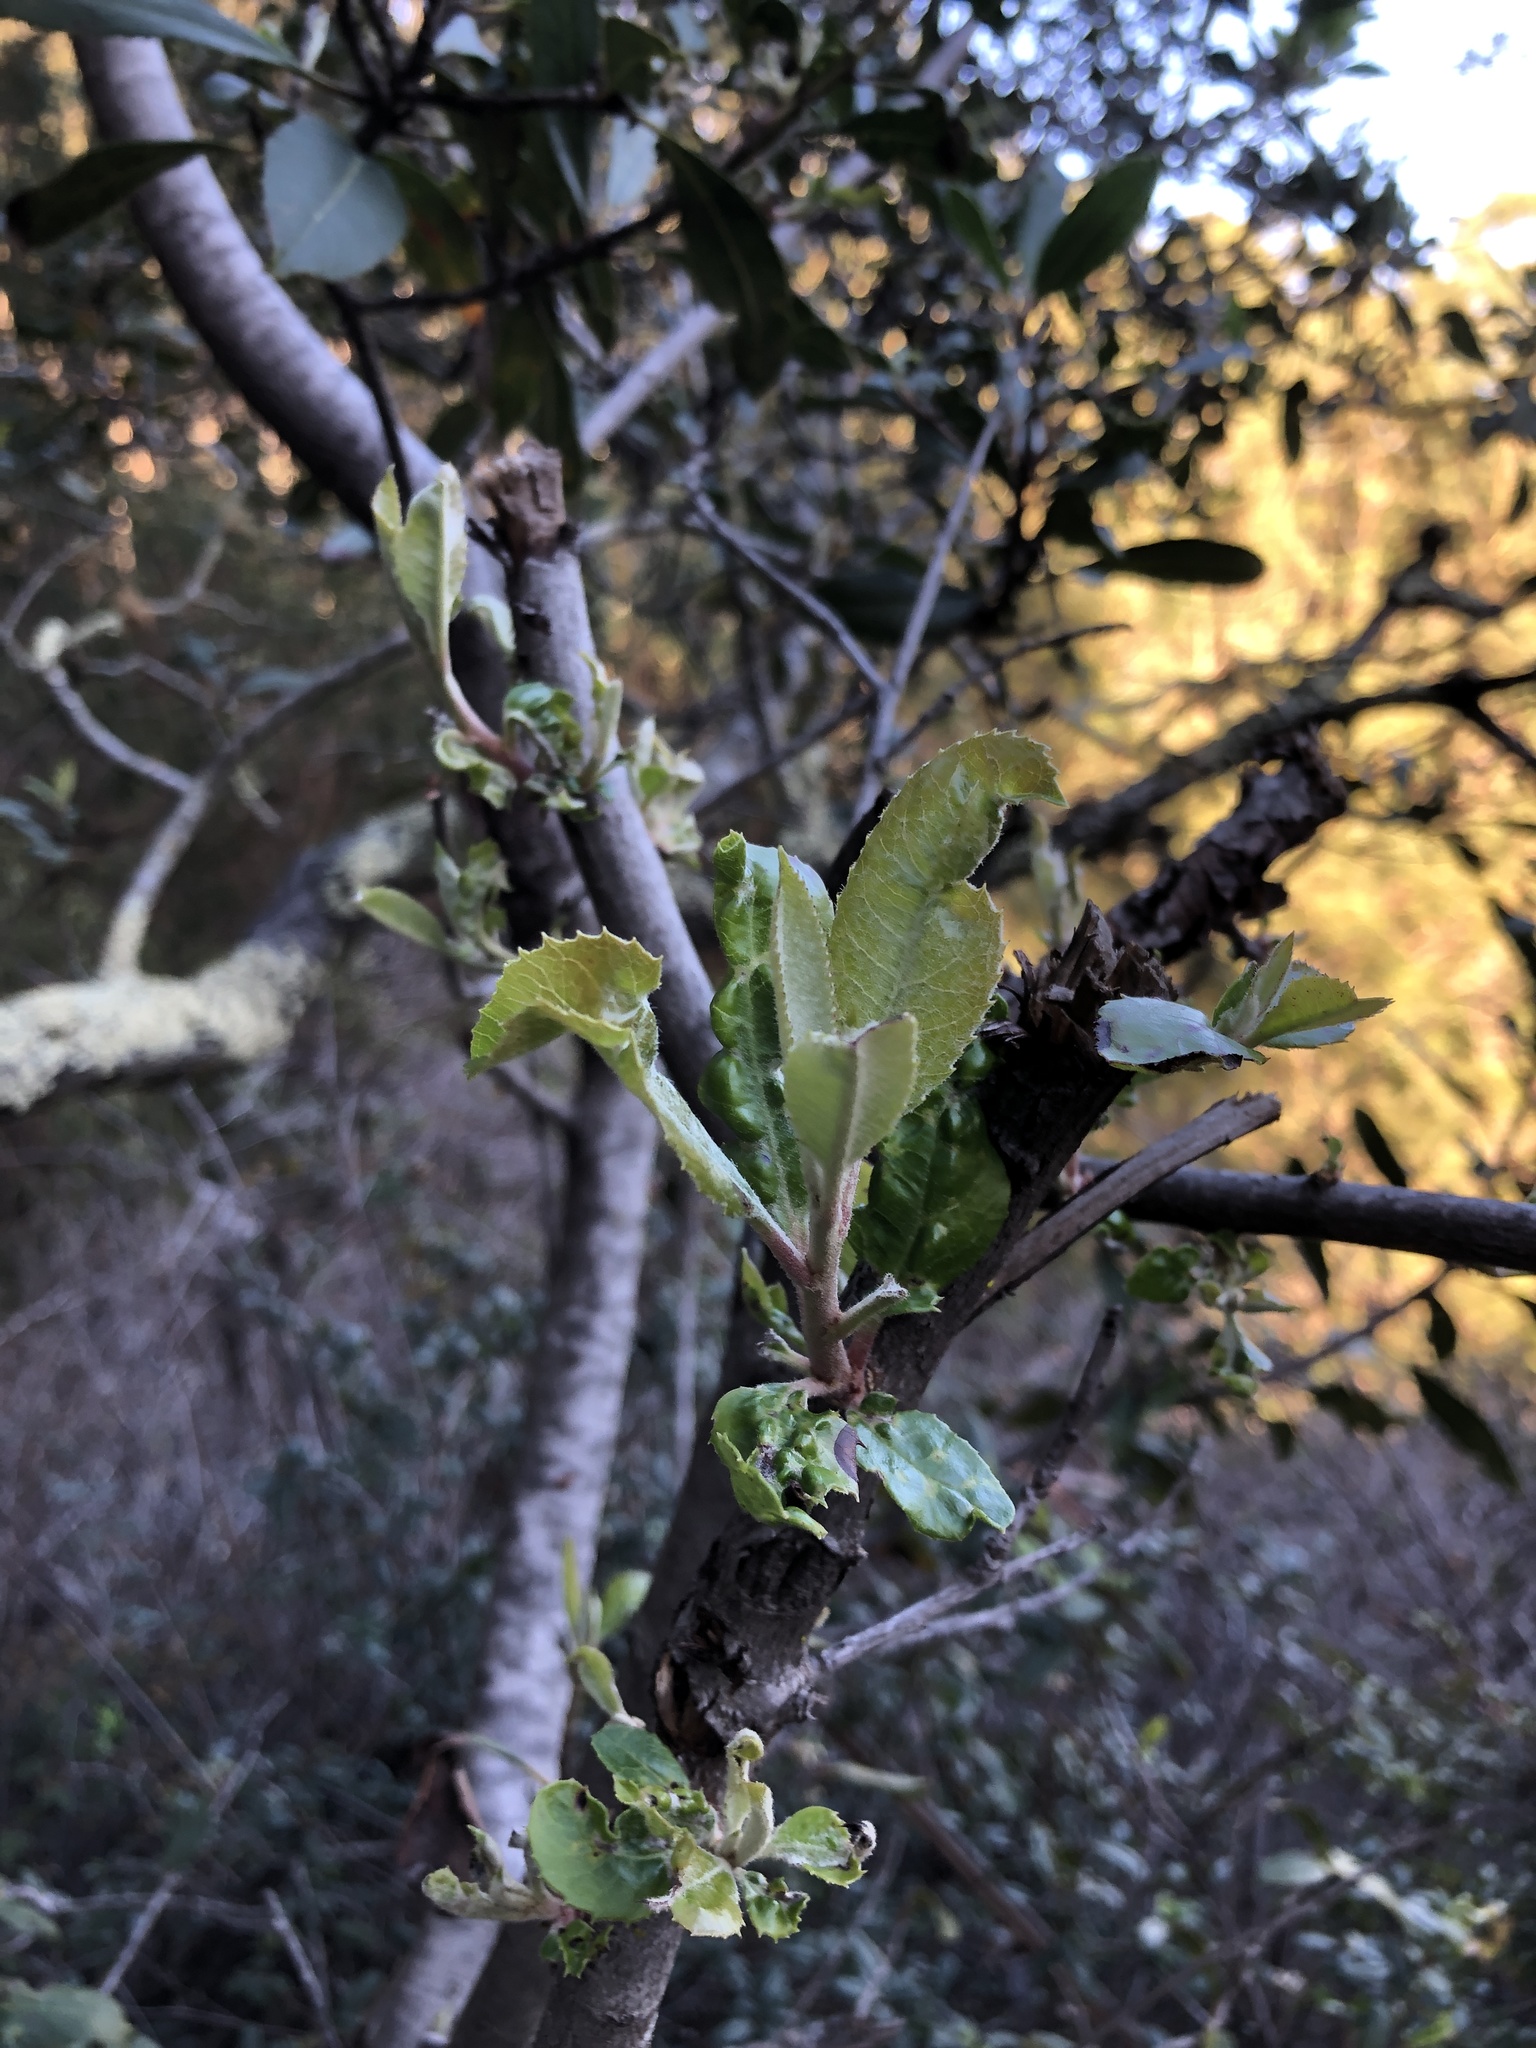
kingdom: Plantae
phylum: Tracheophyta
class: Magnoliopsida
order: Rosales
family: Rosaceae
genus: Heteromeles
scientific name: Heteromeles arbutifolia
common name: California-holly
